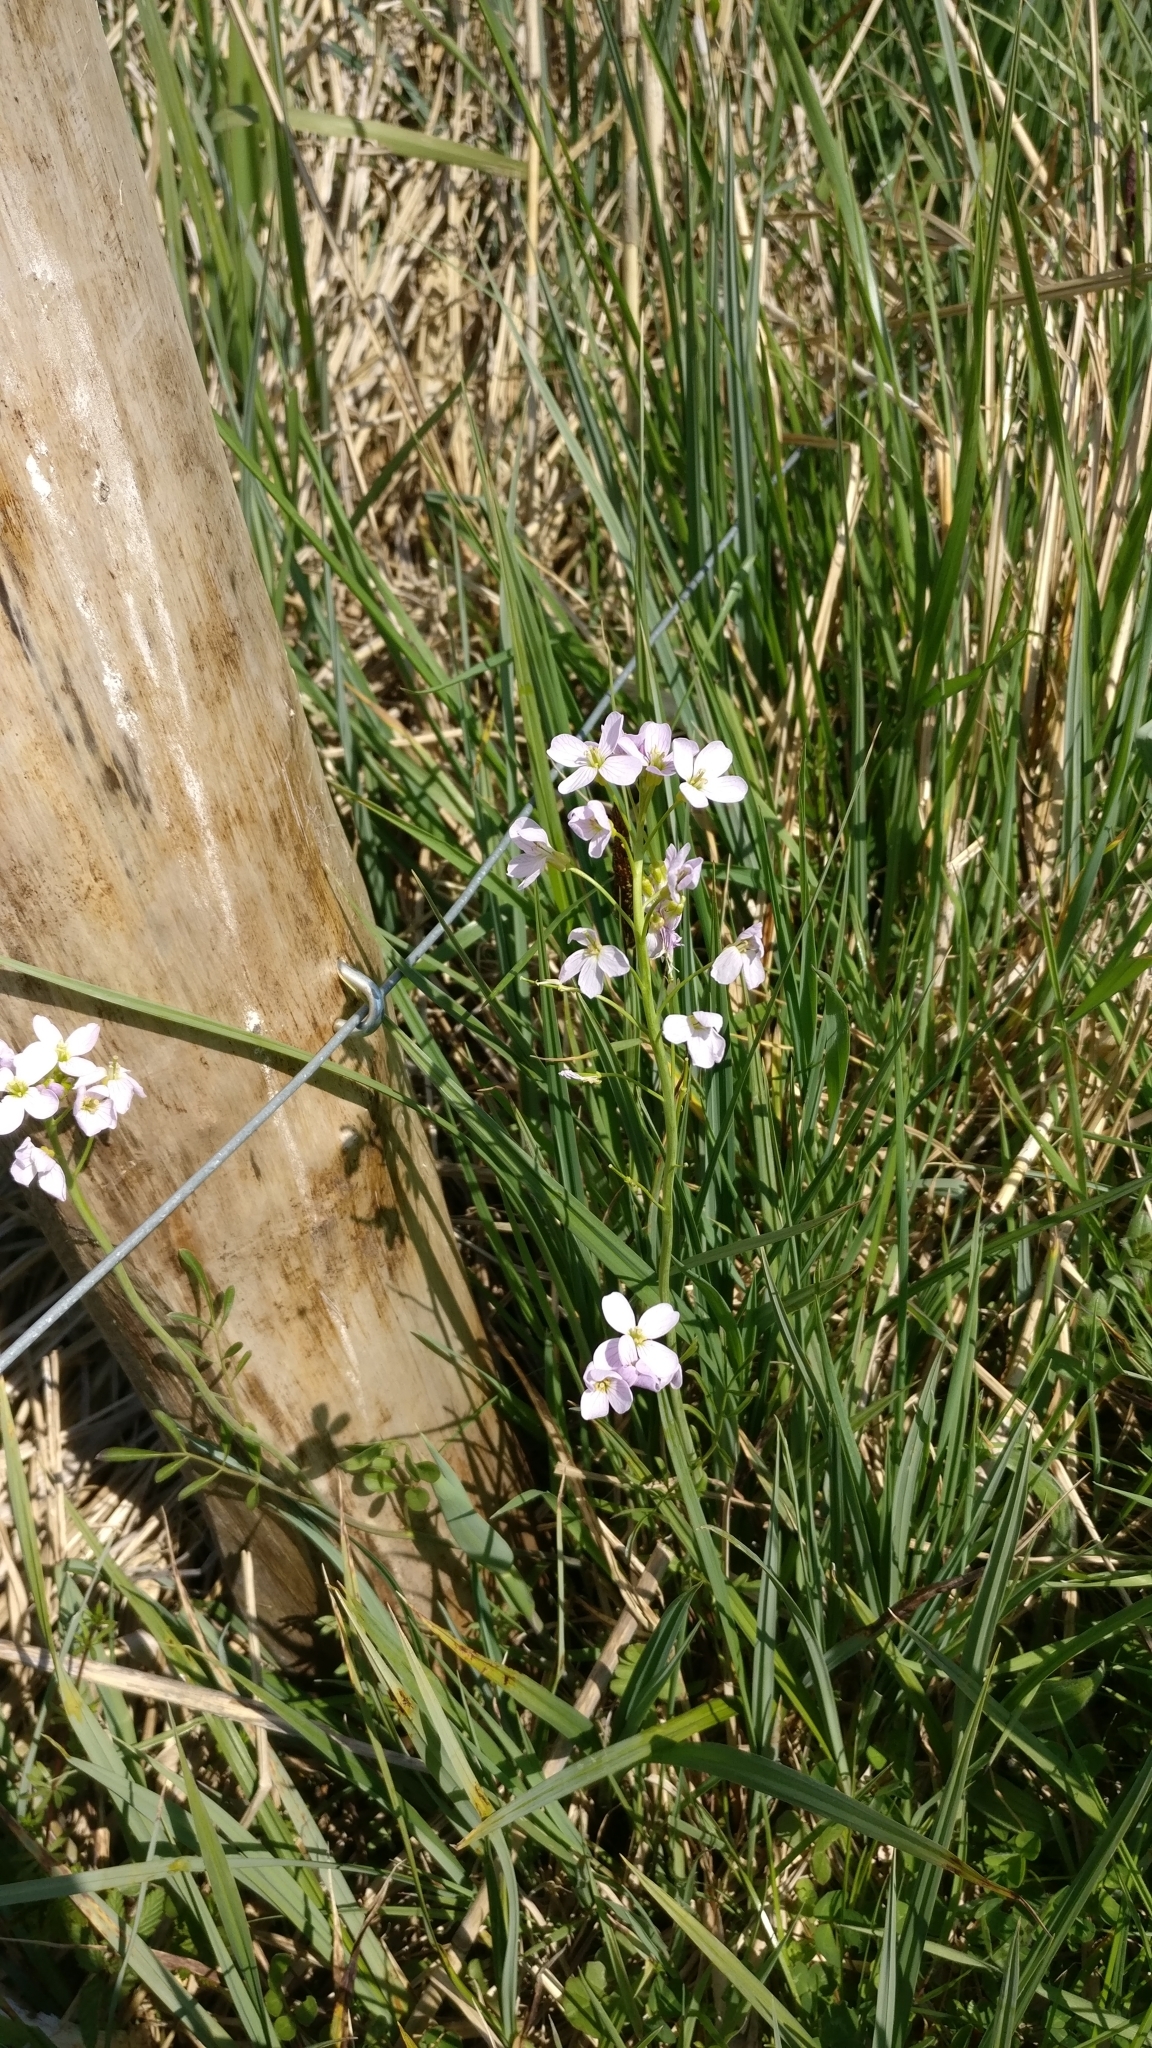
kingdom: Plantae
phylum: Tracheophyta
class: Magnoliopsida
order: Brassicales
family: Brassicaceae
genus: Cardamine
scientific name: Cardamine pratensis
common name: Cuckoo flower
